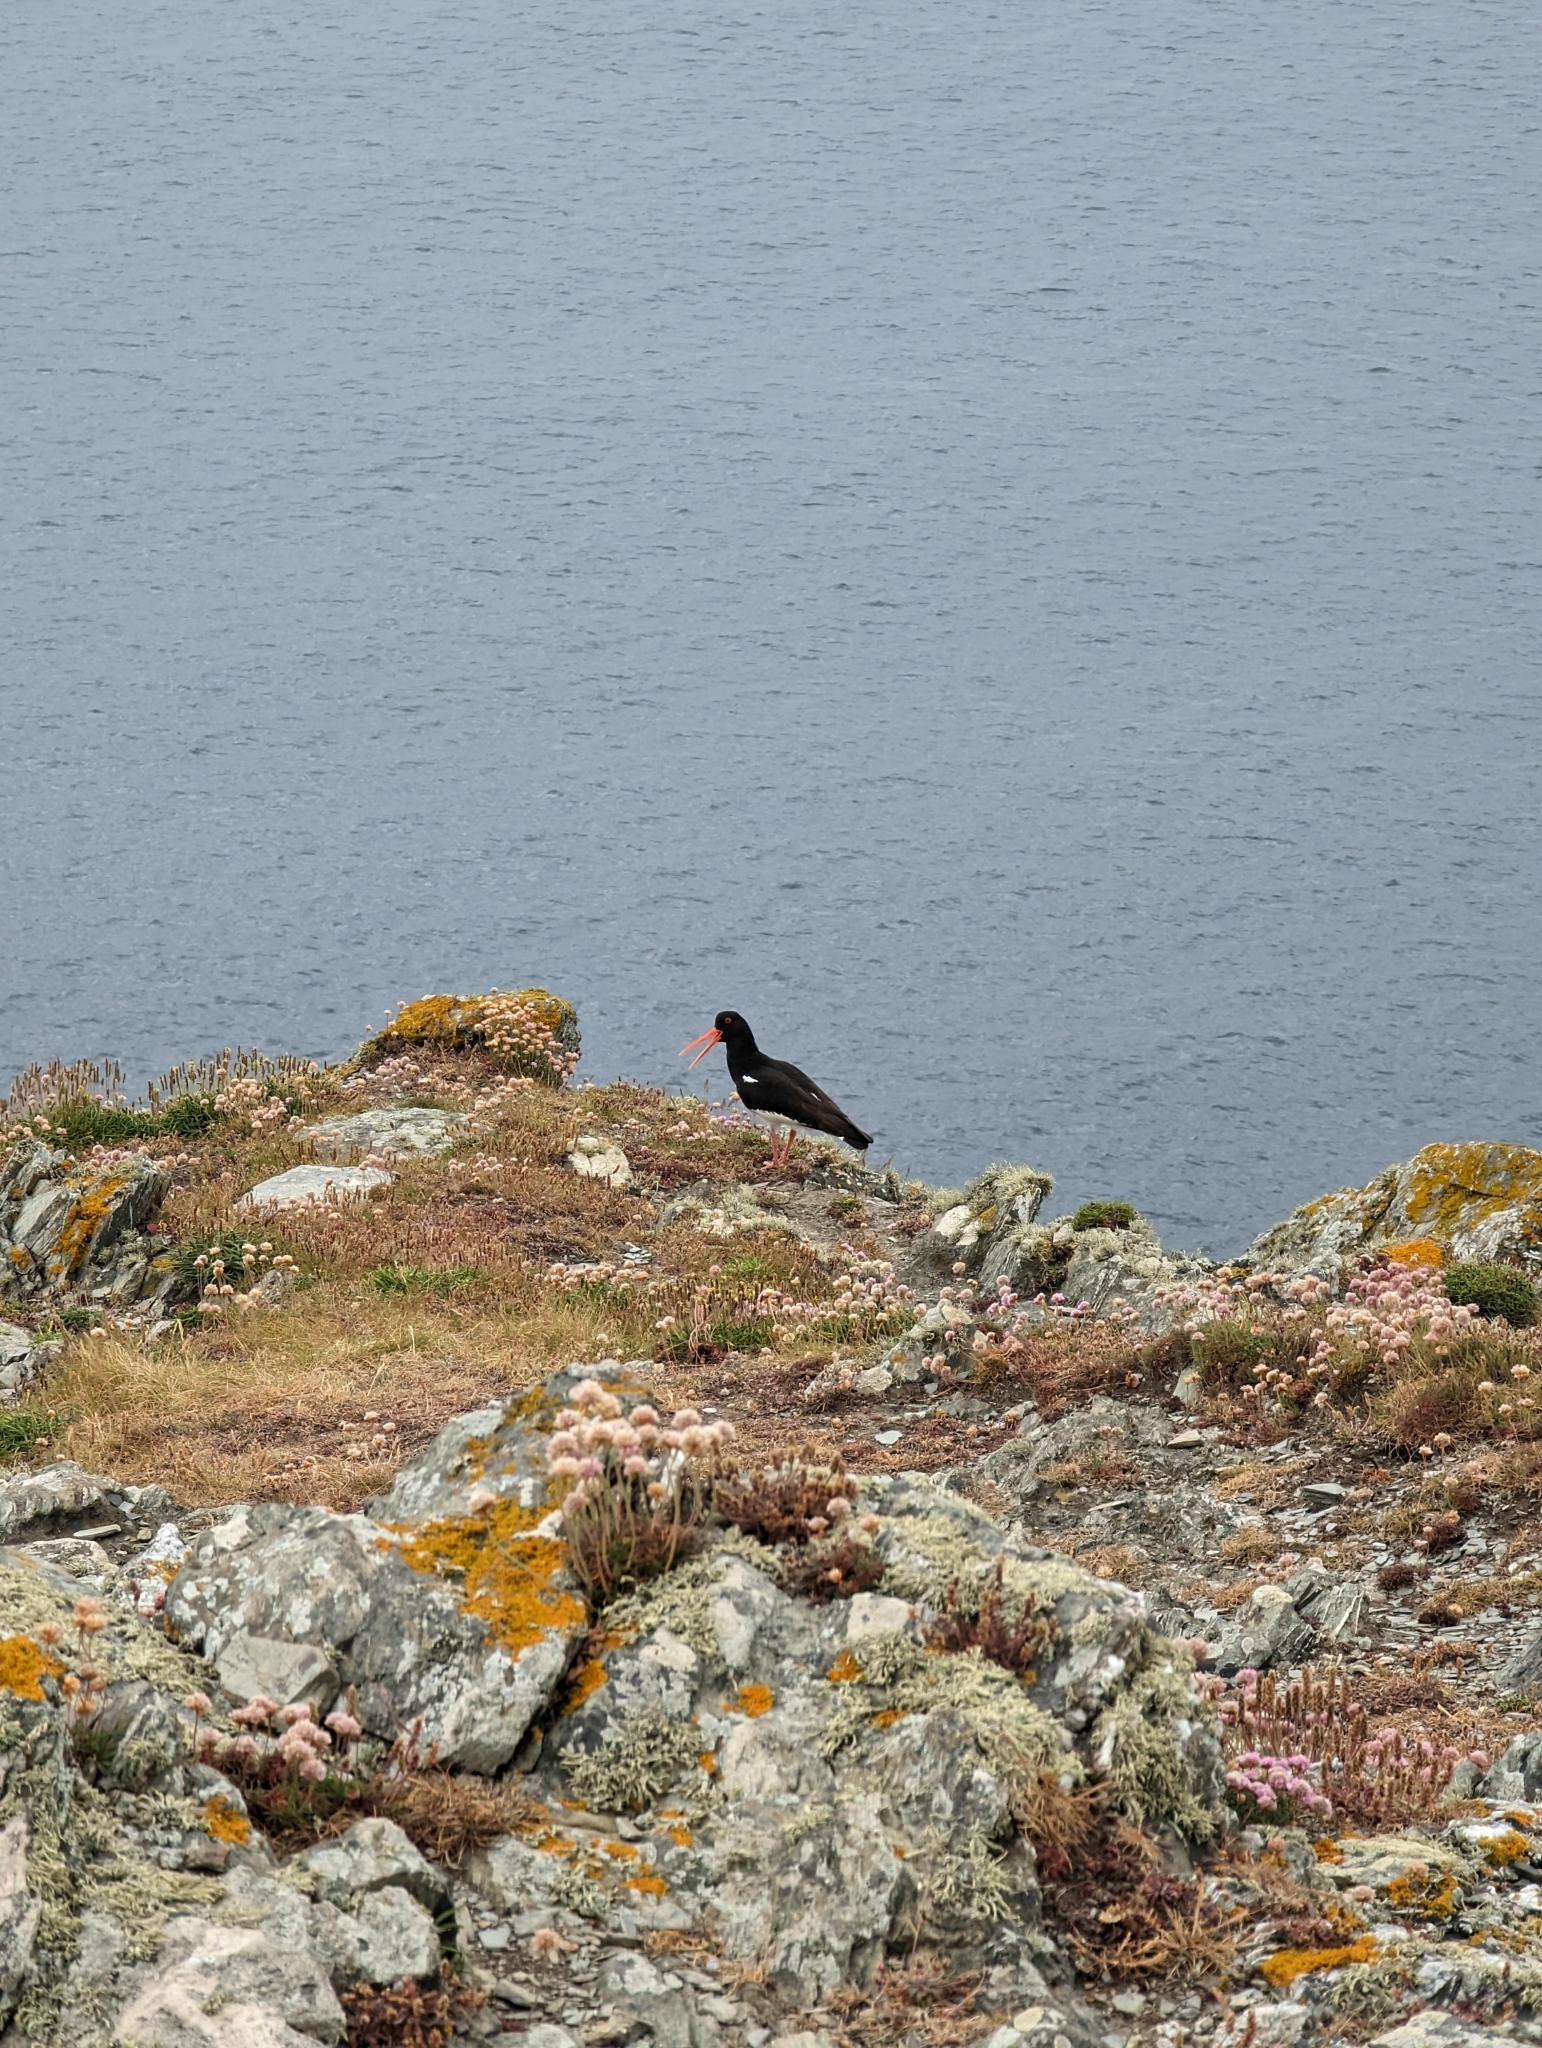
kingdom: Animalia
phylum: Chordata
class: Aves
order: Charadriiformes
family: Haematopodidae
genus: Haematopus
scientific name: Haematopus ostralegus
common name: Eurasian oystercatcher
